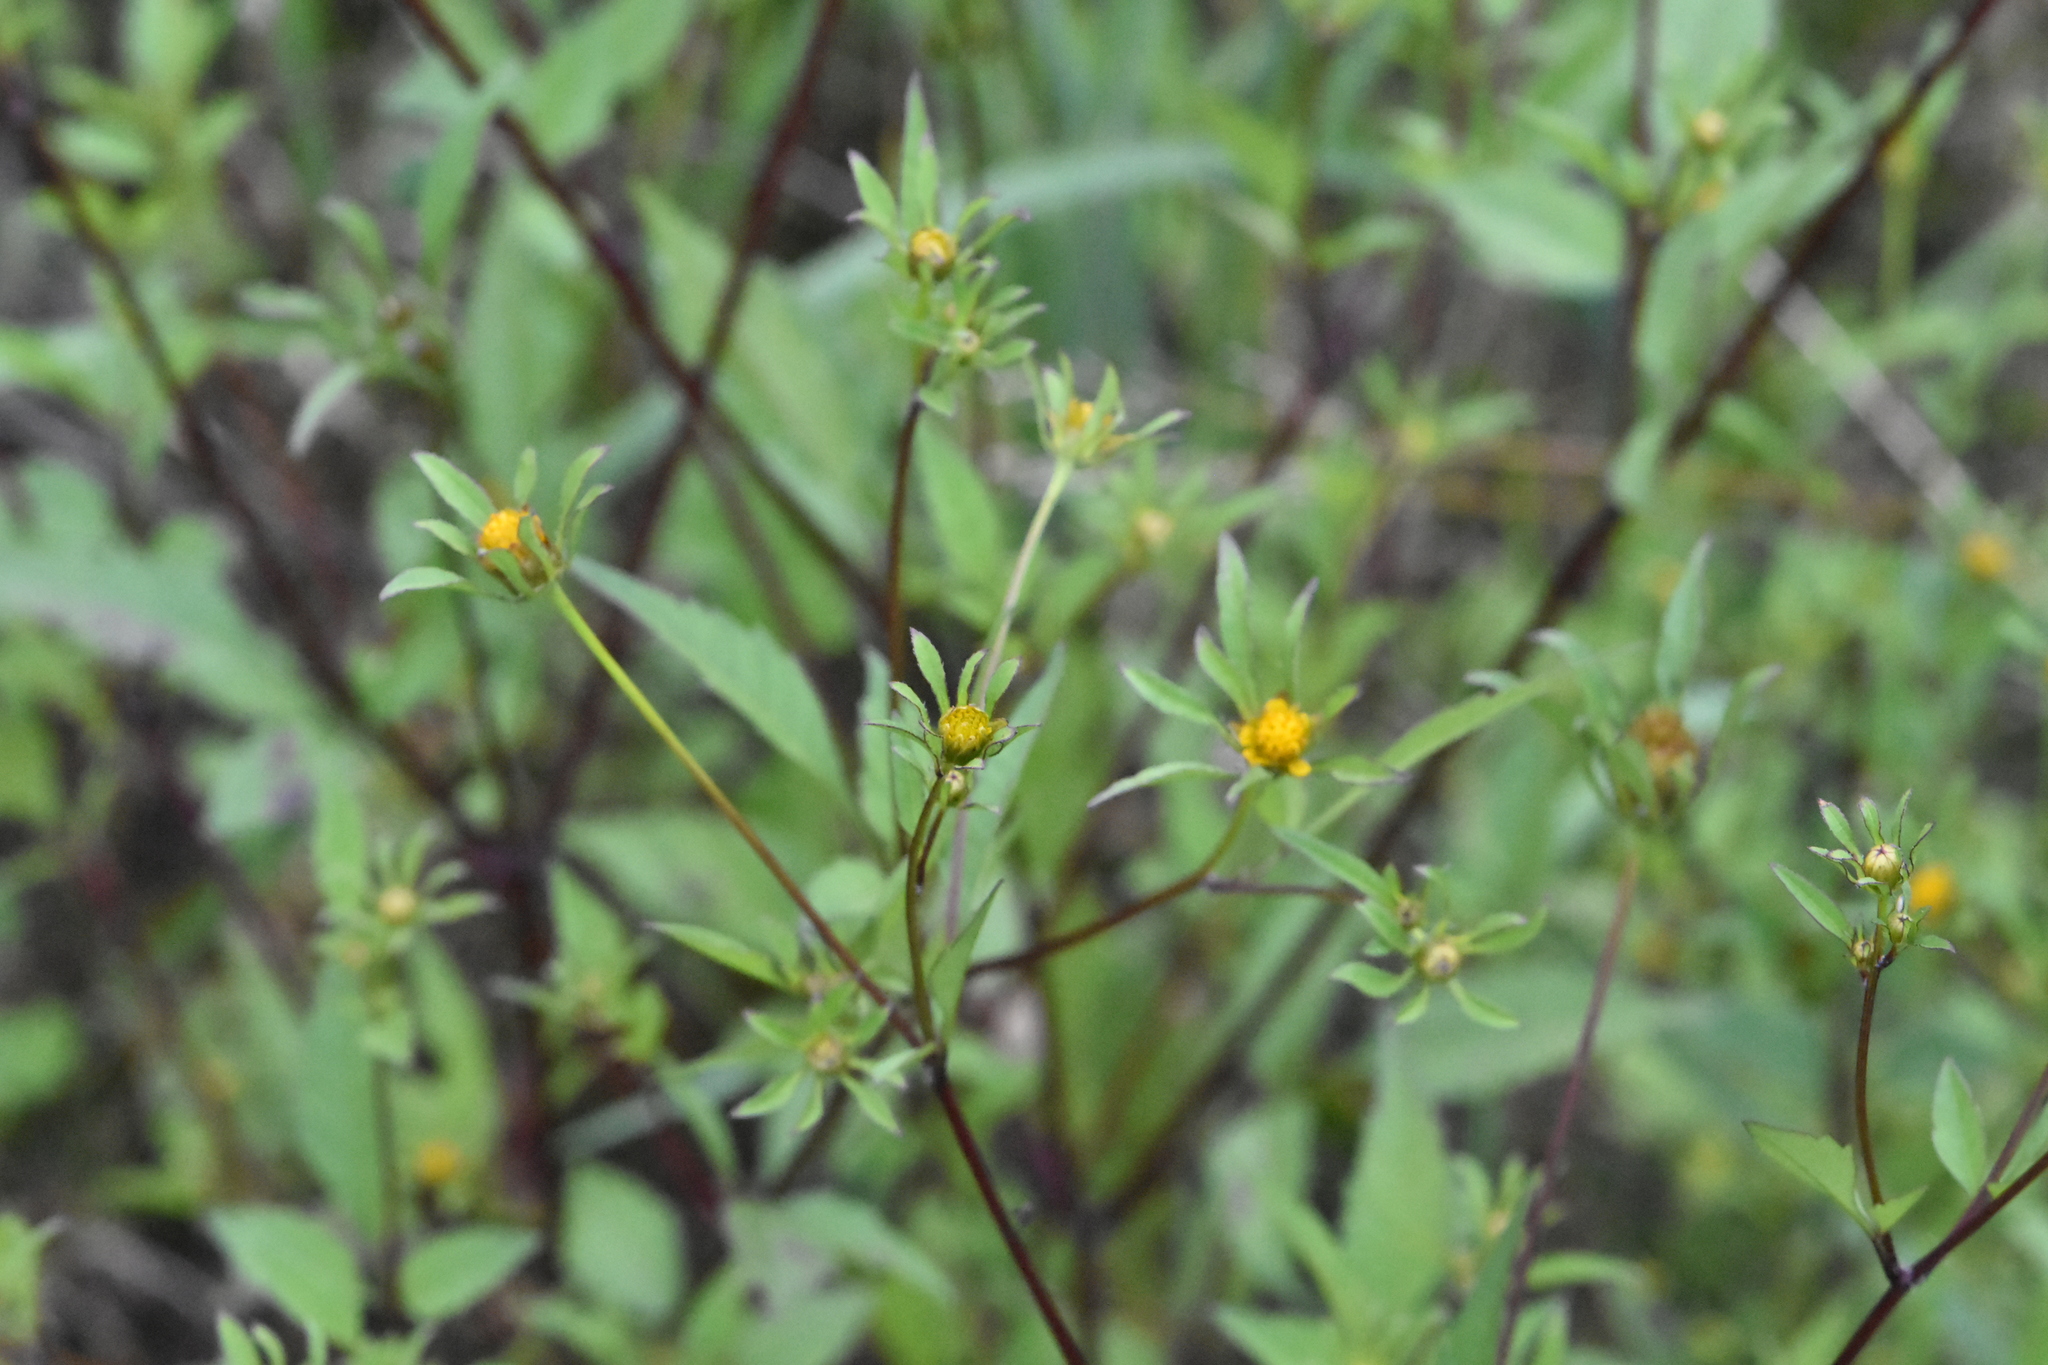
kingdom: Plantae
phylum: Tracheophyta
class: Magnoliopsida
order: Asterales
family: Asteraceae
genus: Bidens
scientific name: Bidens frondosa
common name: Beggarticks
